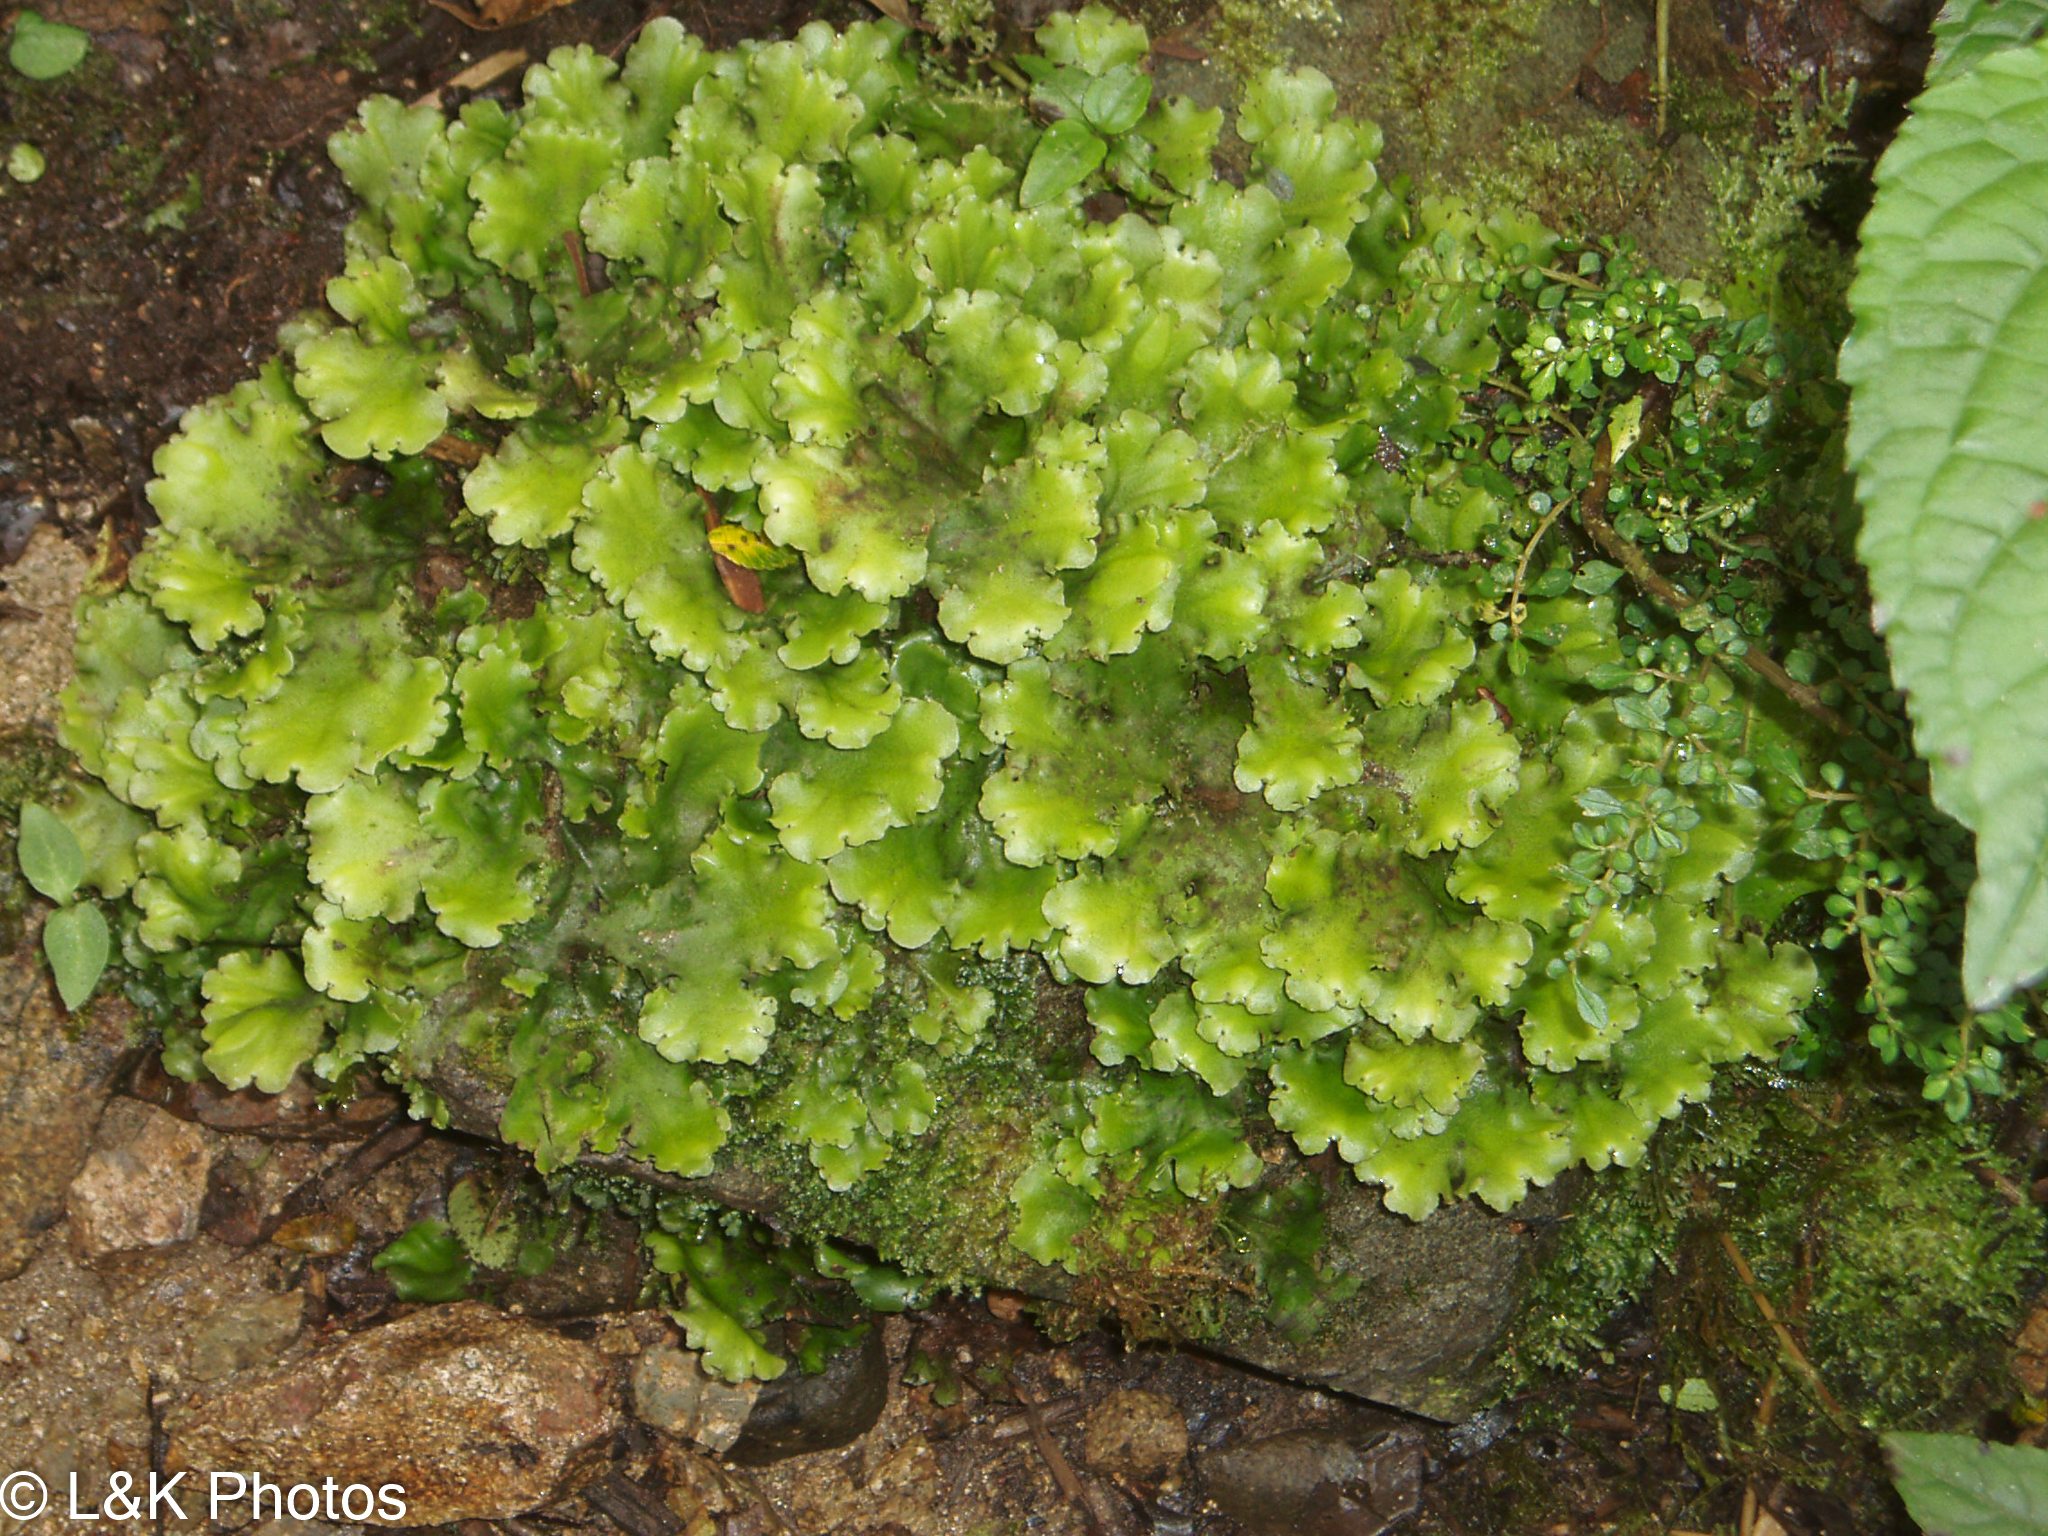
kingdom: Plantae
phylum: Marchantiophyta
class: Marchantiopsida
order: Marchantiales
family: Monocleaceae
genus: Monoclea
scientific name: Monoclea gottschei
